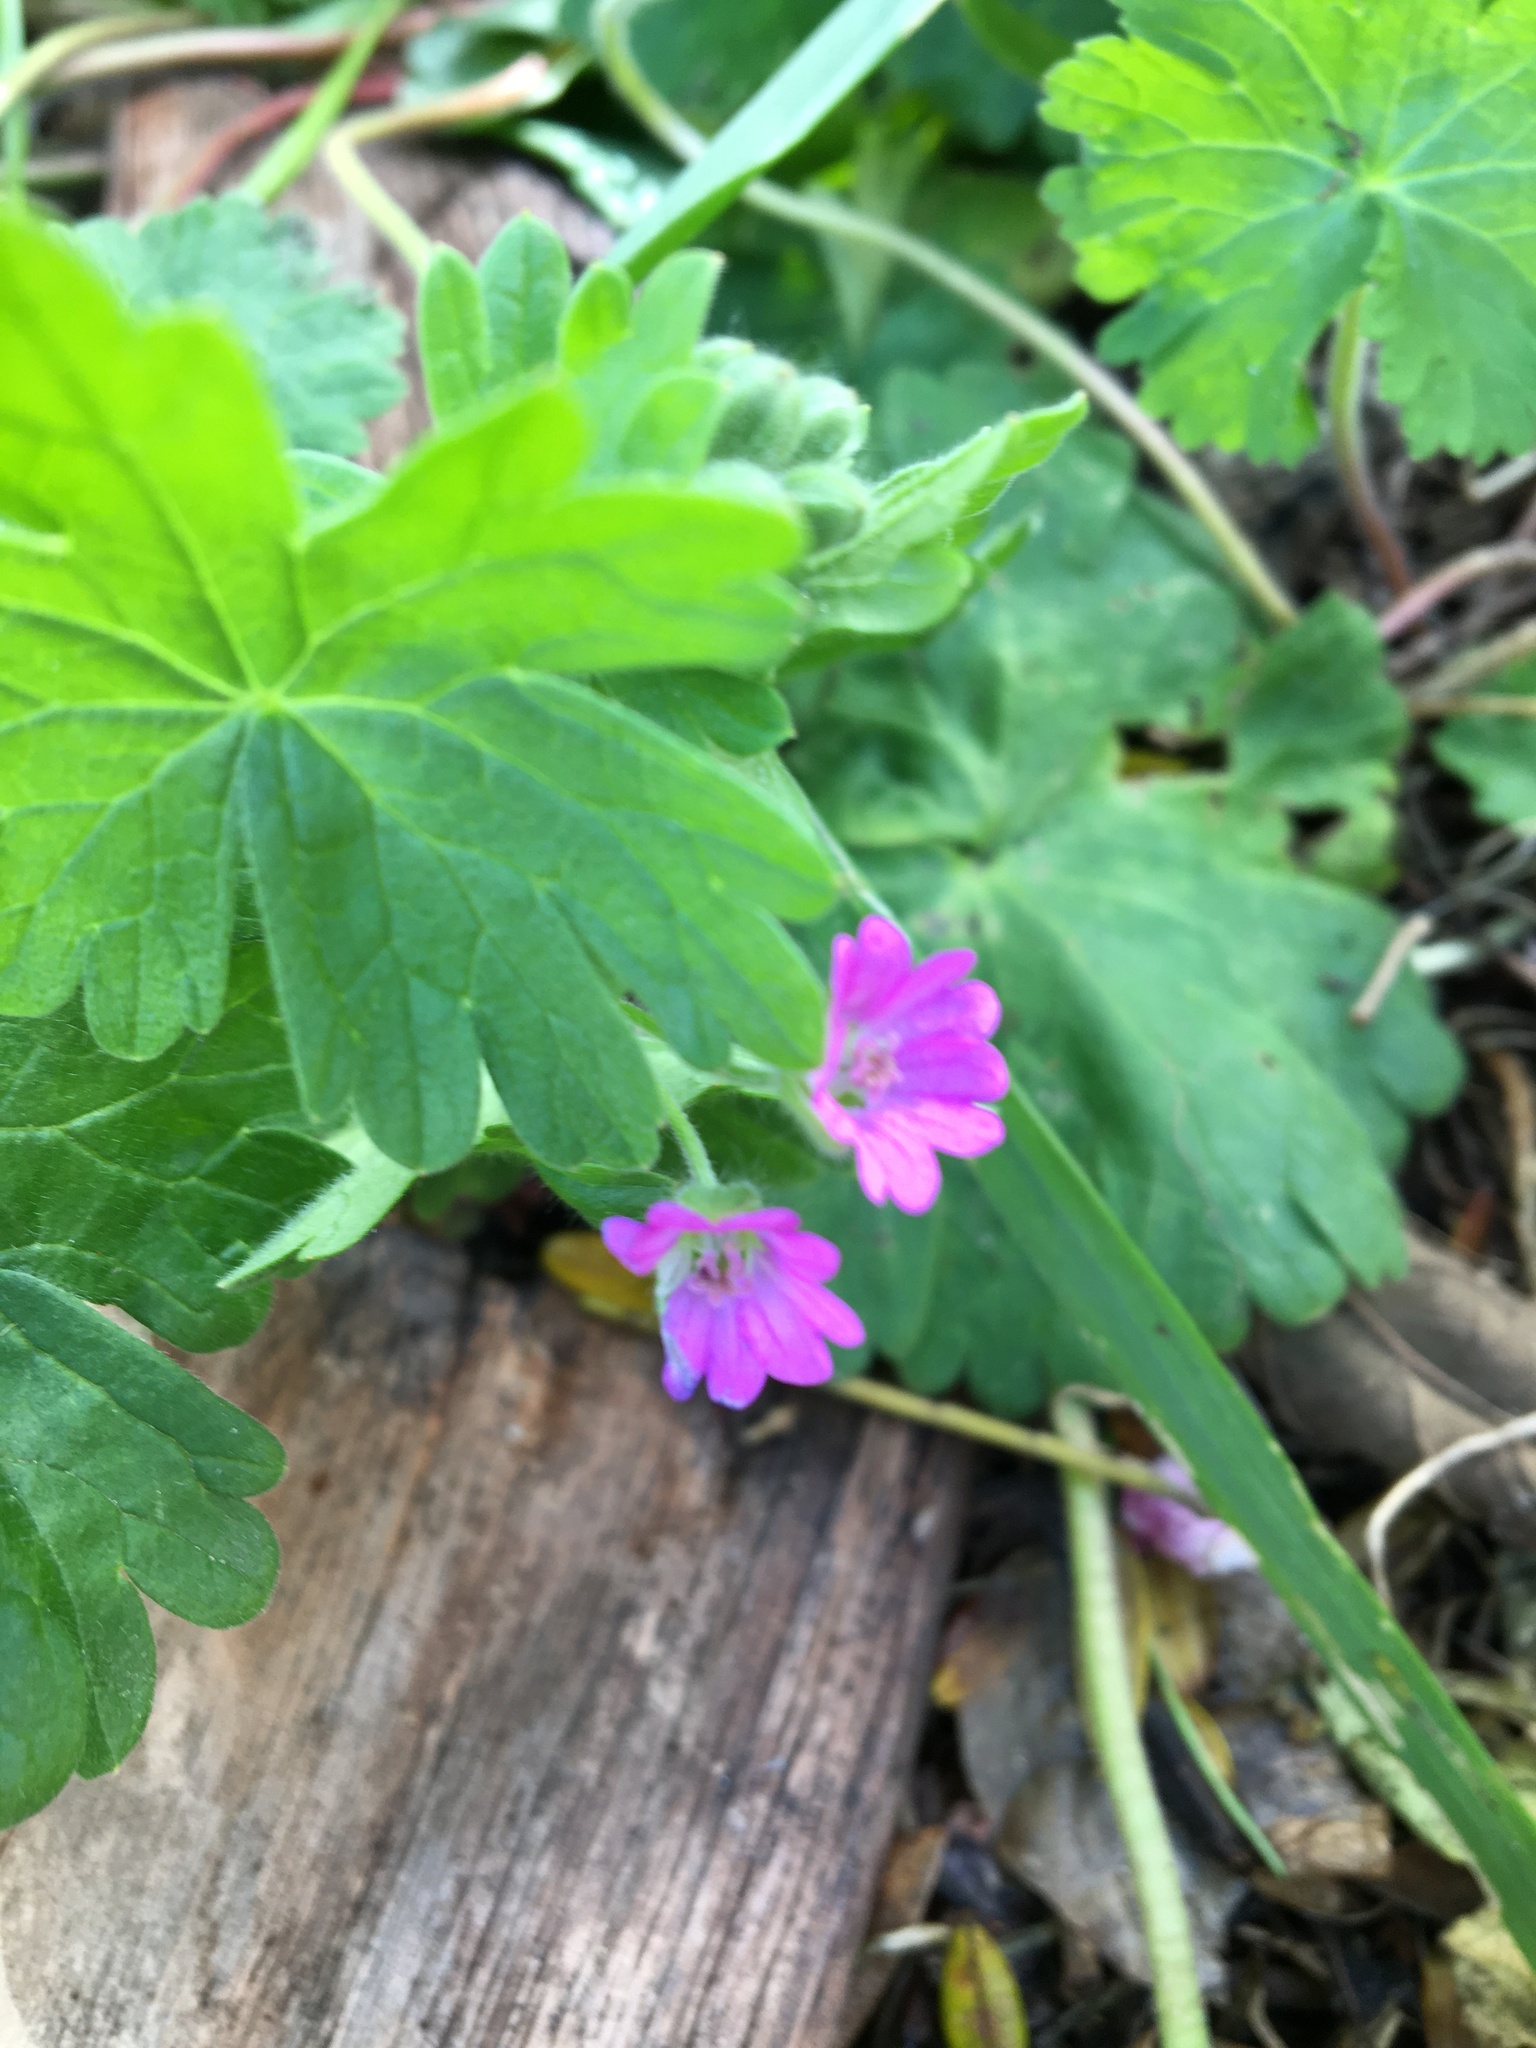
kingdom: Plantae
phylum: Tracheophyta
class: Magnoliopsida
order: Geraniales
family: Geraniaceae
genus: Geranium
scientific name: Geranium molle
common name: Dove's-foot crane's-bill
